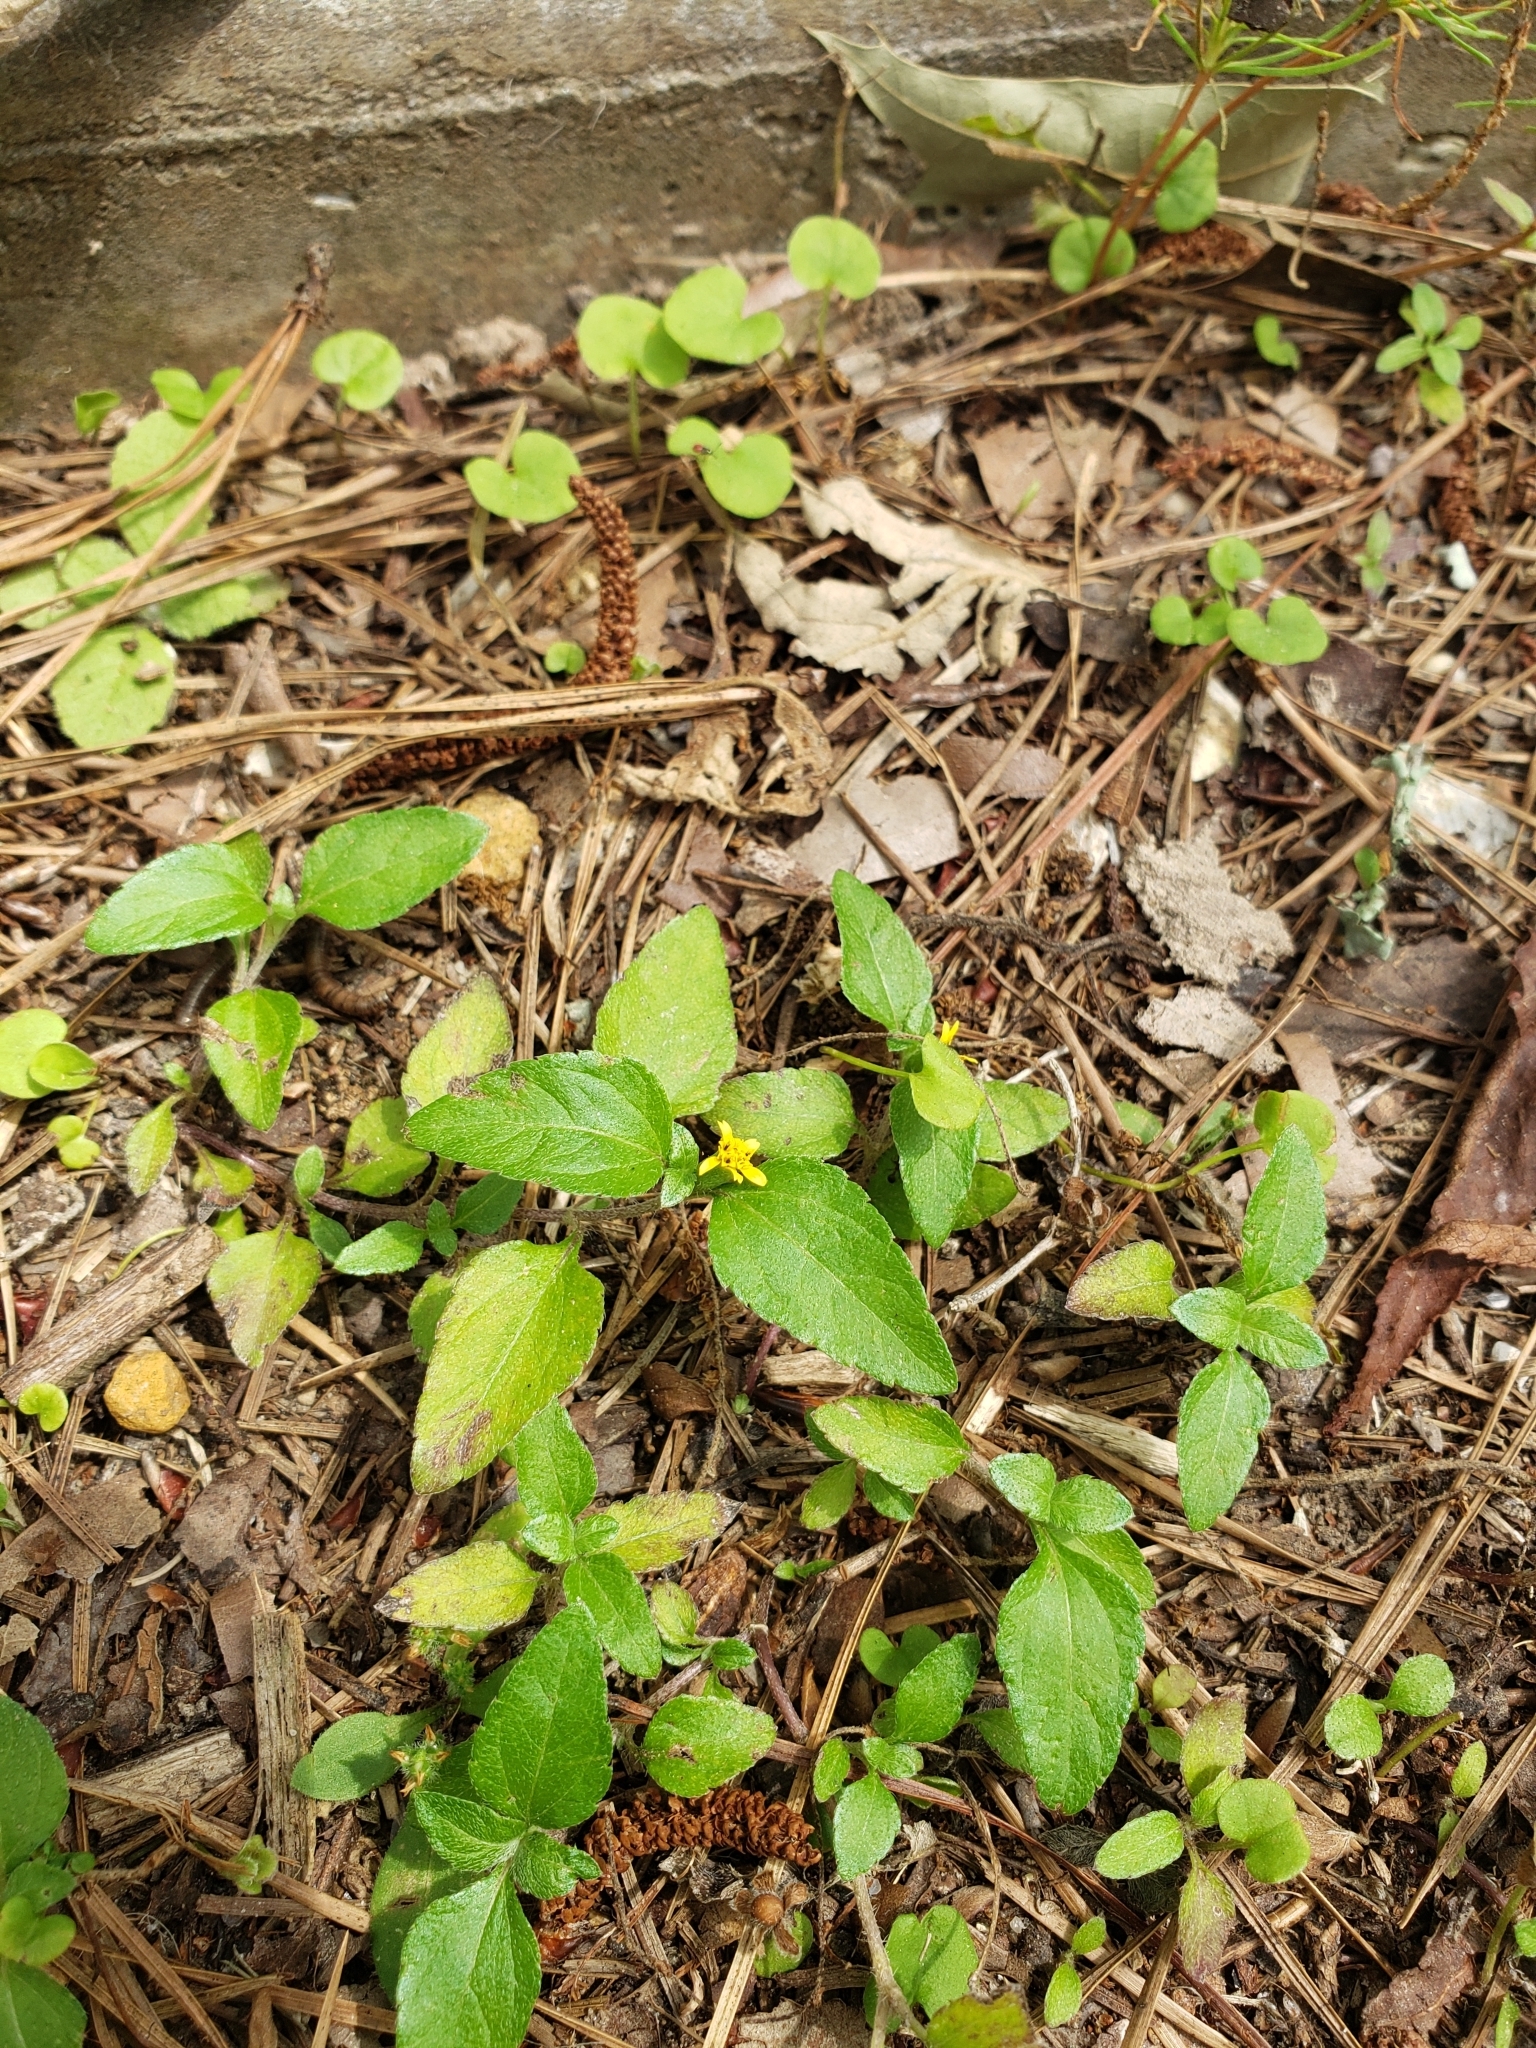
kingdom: Plantae
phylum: Tracheophyta
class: Magnoliopsida
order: Asterales
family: Asteraceae
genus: Calyptocarpus
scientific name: Calyptocarpus vialis
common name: Straggler daisy
